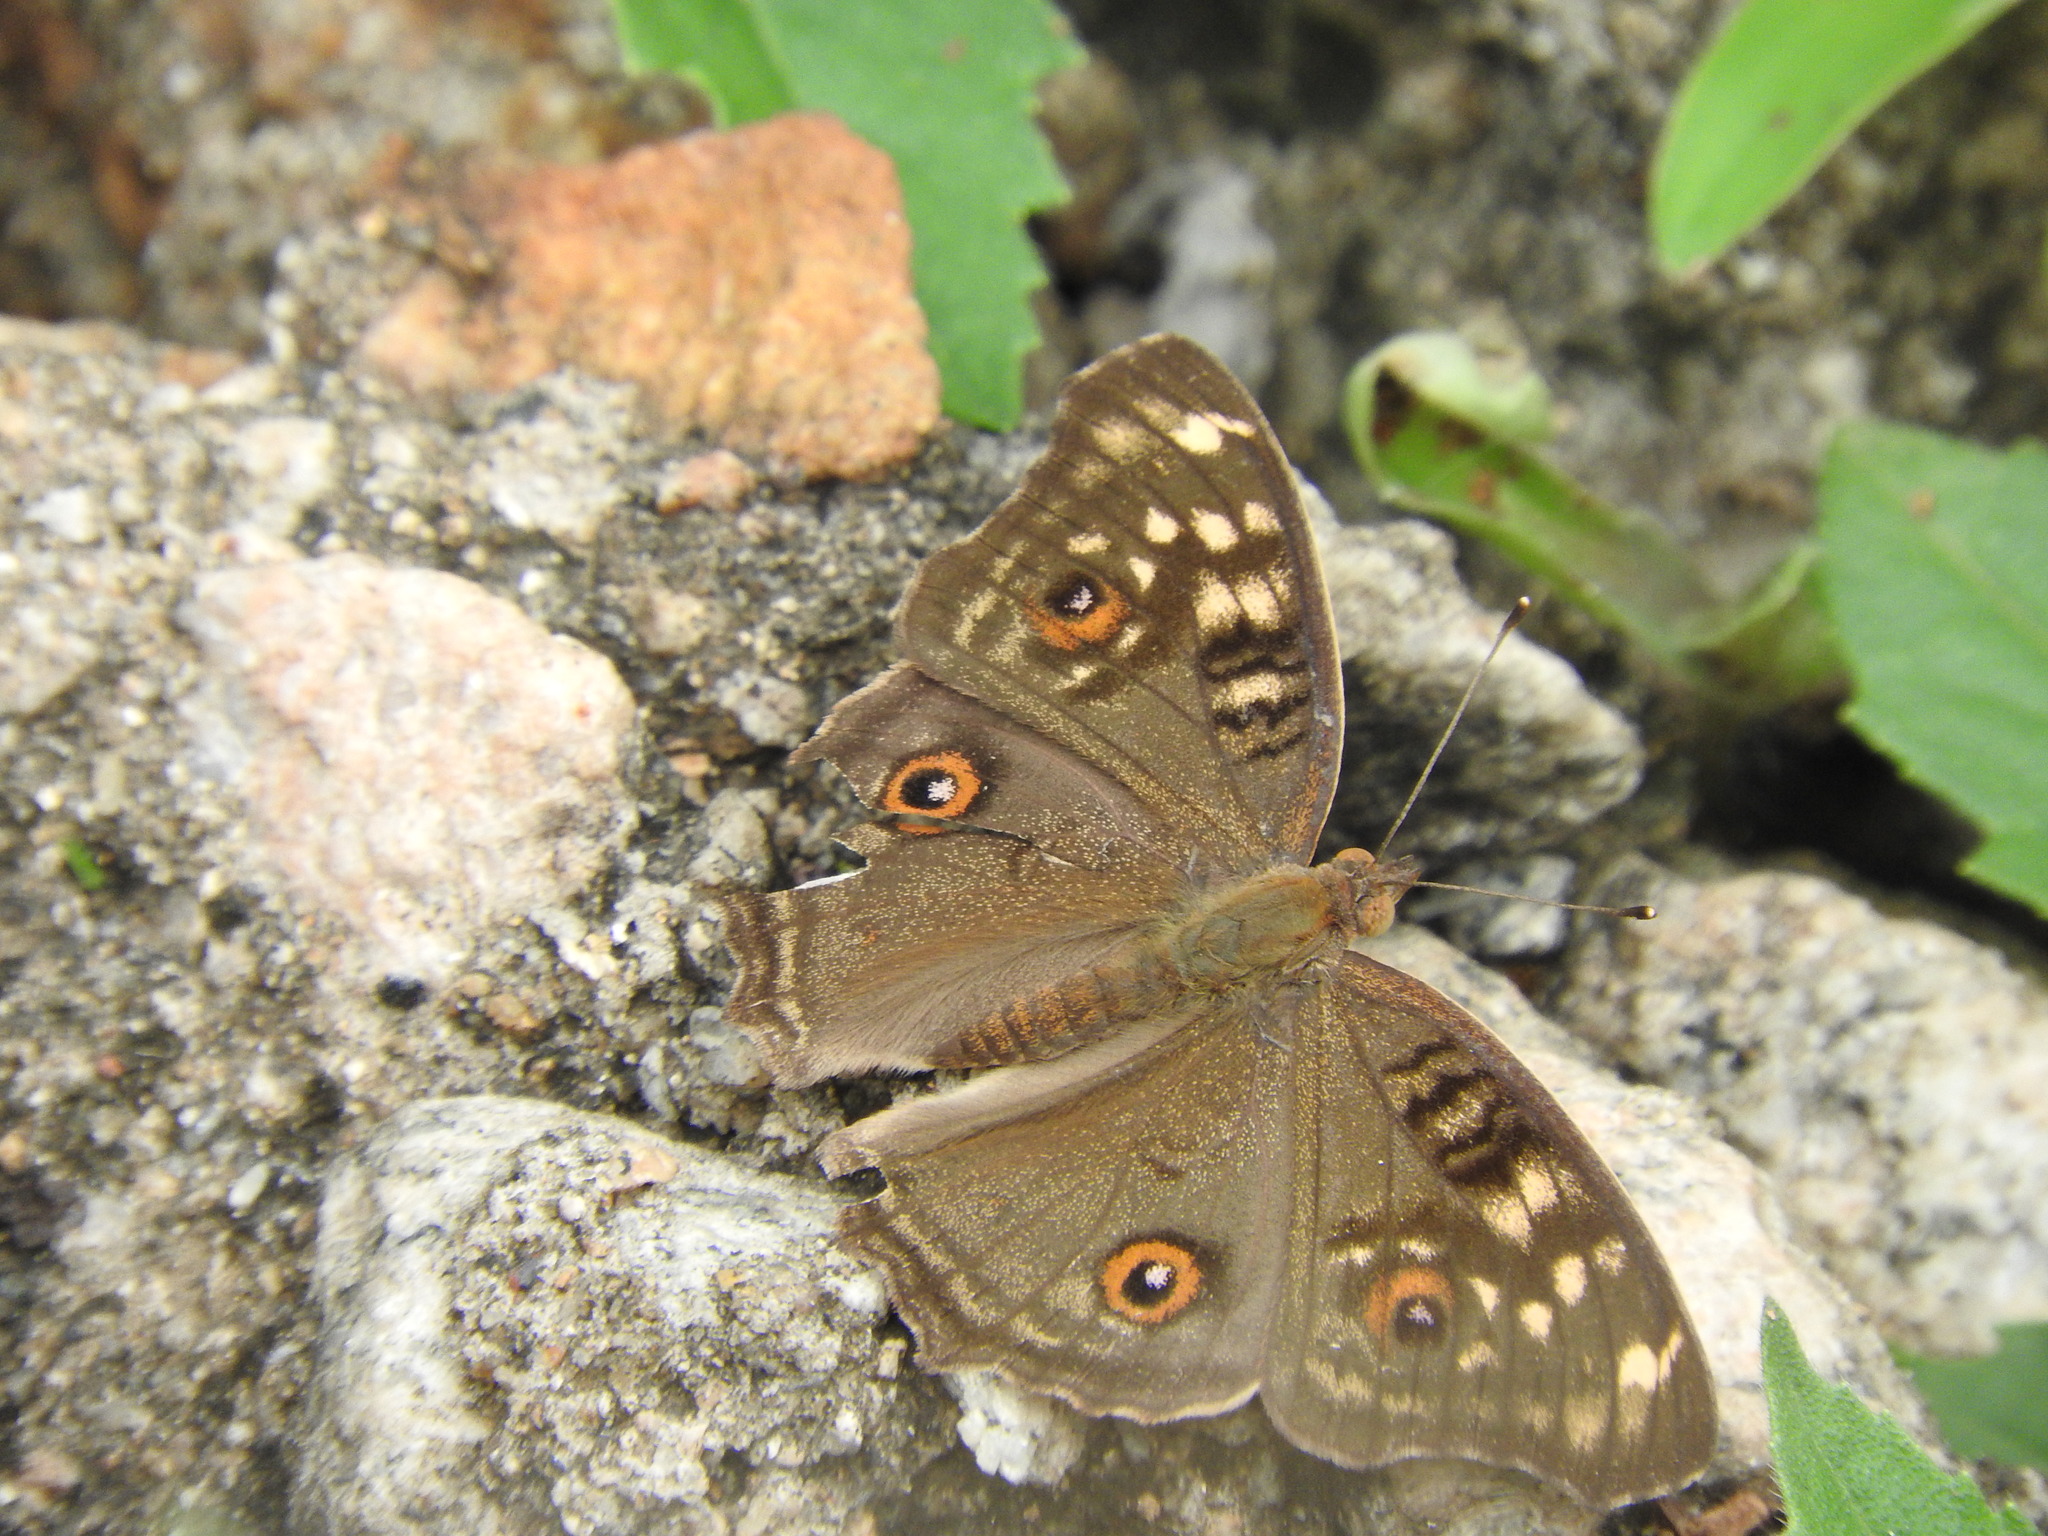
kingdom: Animalia
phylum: Arthropoda
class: Insecta
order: Lepidoptera
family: Nymphalidae
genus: Junonia
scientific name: Junonia lemonias
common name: Lemon pansy
